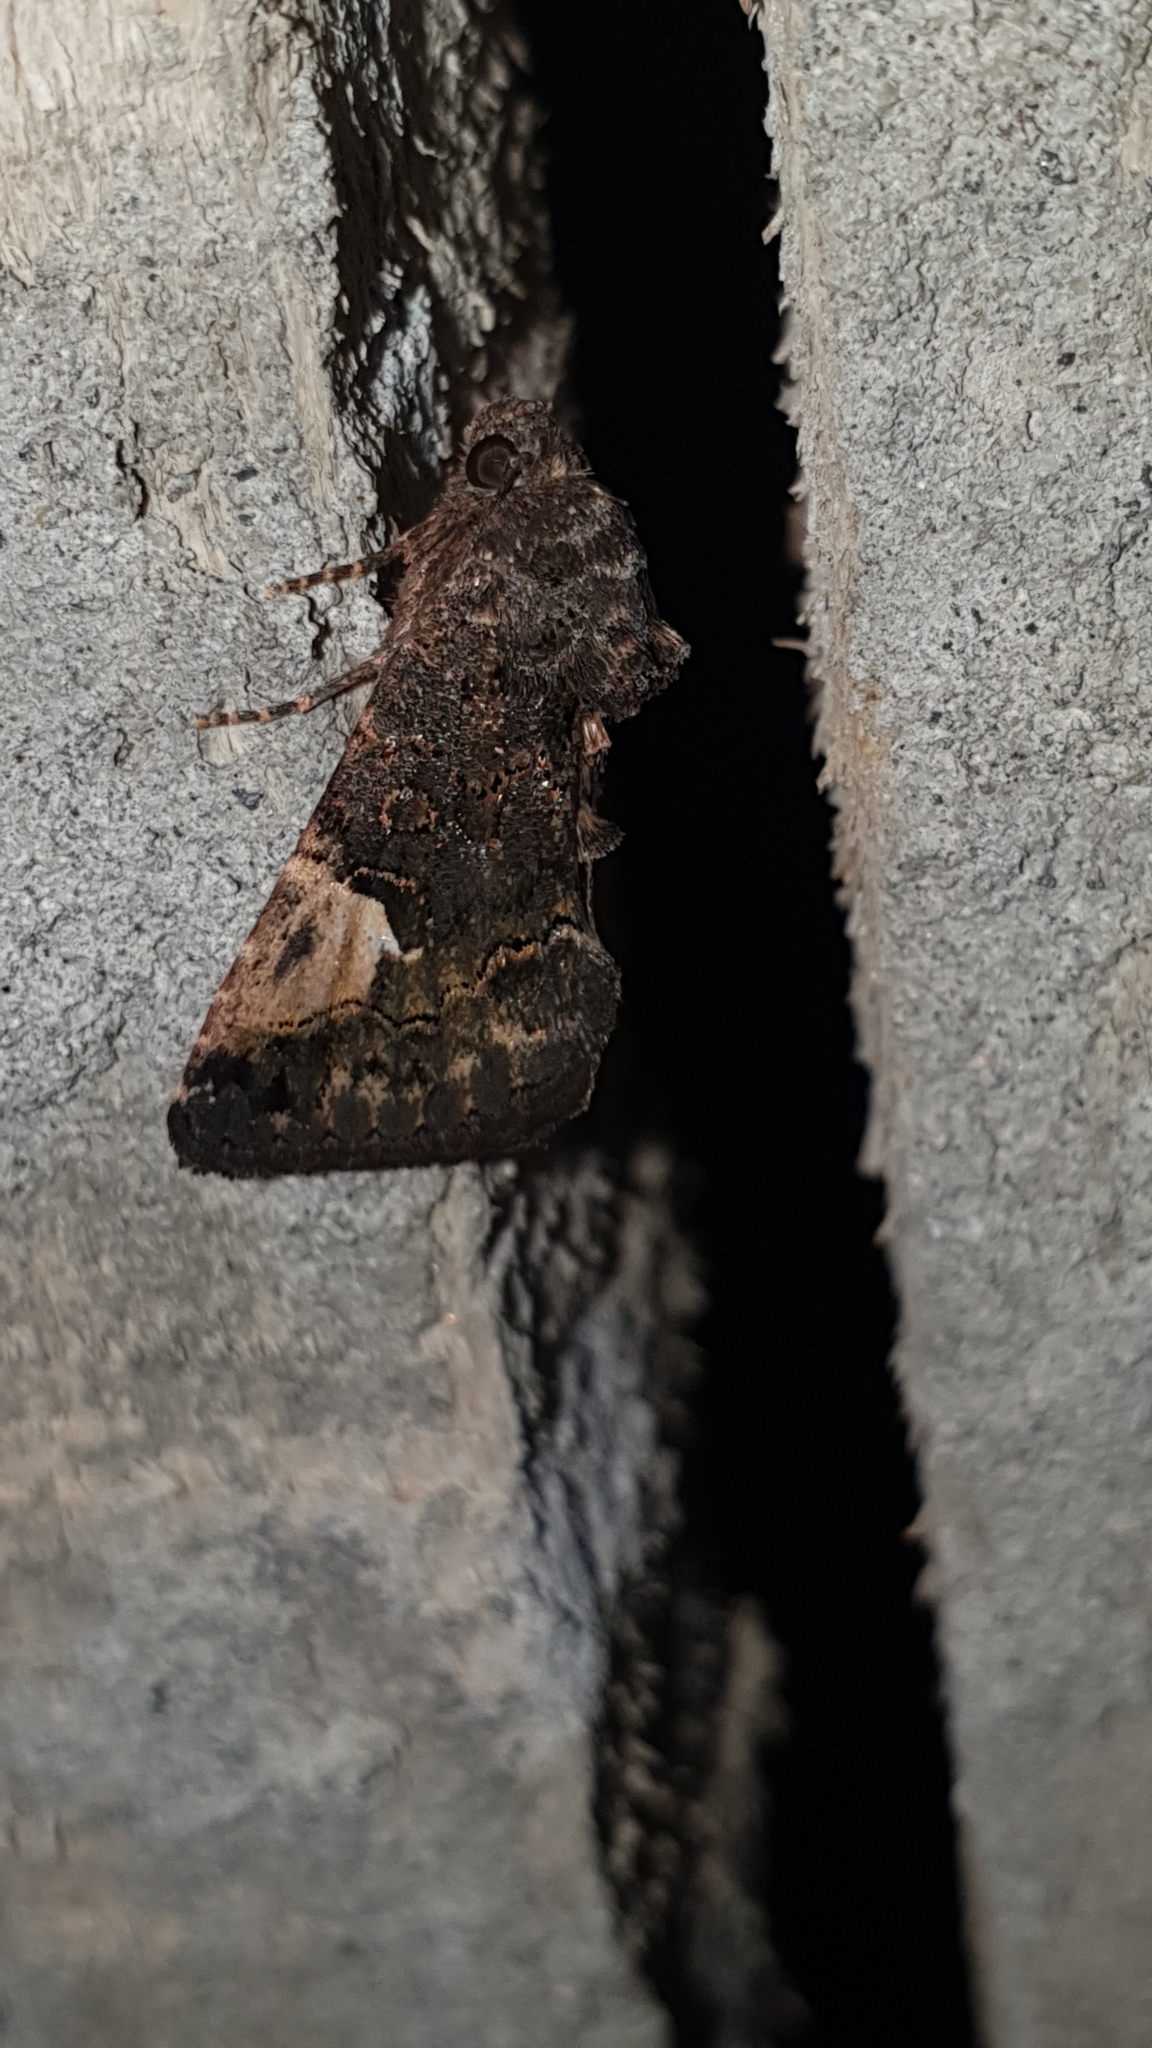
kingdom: Animalia
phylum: Arthropoda
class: Insecta
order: Lepidoptera
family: Noctuidae
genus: Aedia
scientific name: Aedia funesta
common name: The druid
